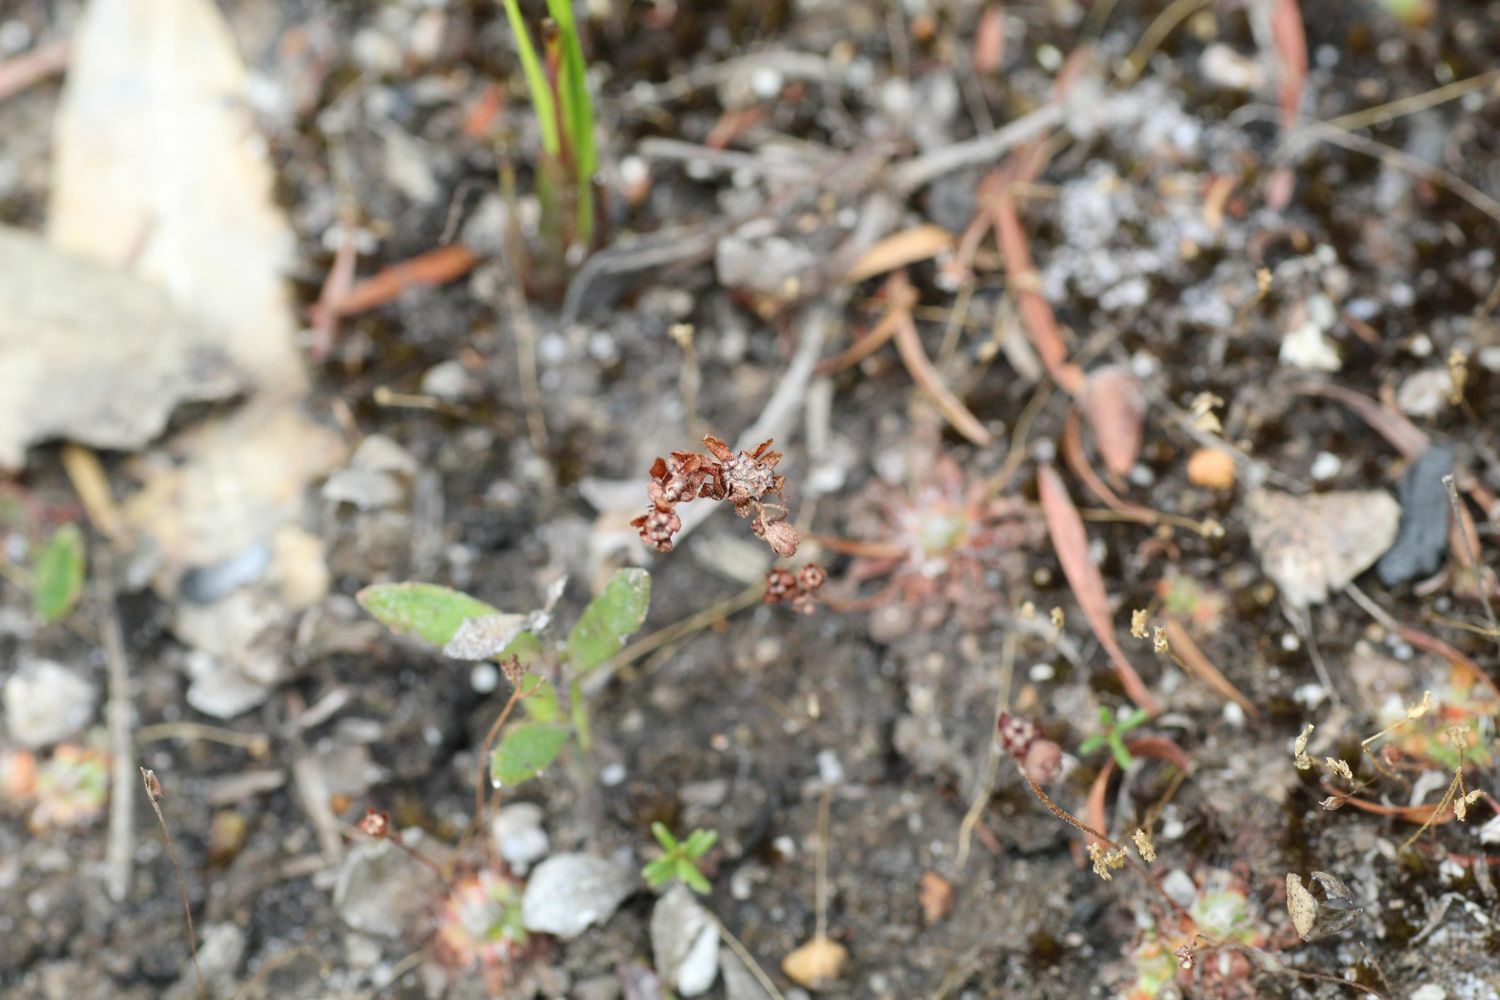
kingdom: Plantae
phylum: Tracheophyta
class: Magnoliopsida
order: Caryophyllales
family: Droseraceae
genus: Drosera
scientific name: Drosera pulchella
